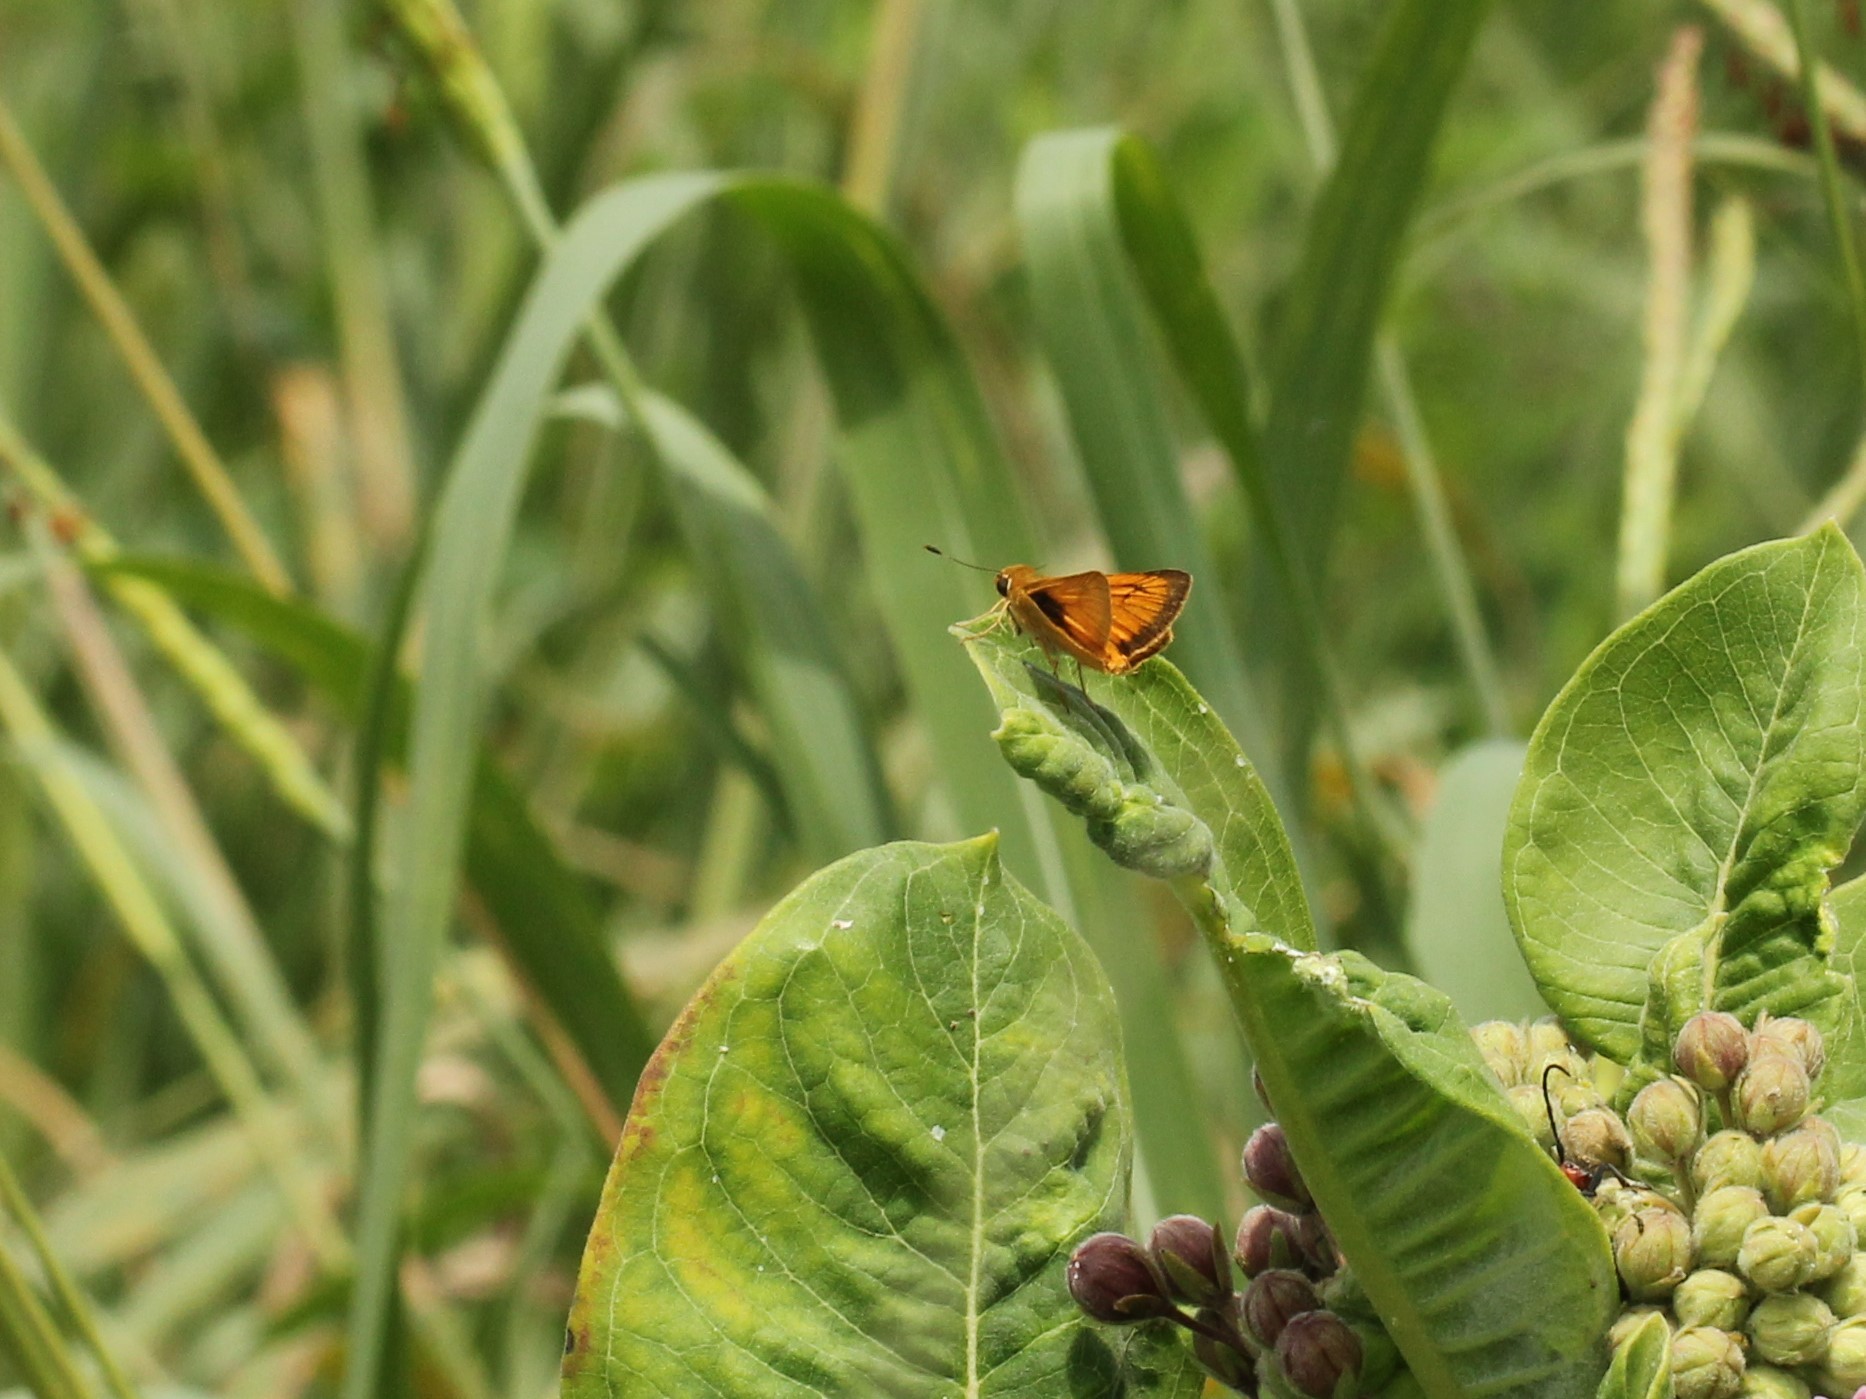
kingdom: Animalia
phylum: Arthropoda
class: Insecta
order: Lepidoptera
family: Hesperiidae
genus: Atrytone
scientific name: Atrytone delaware
